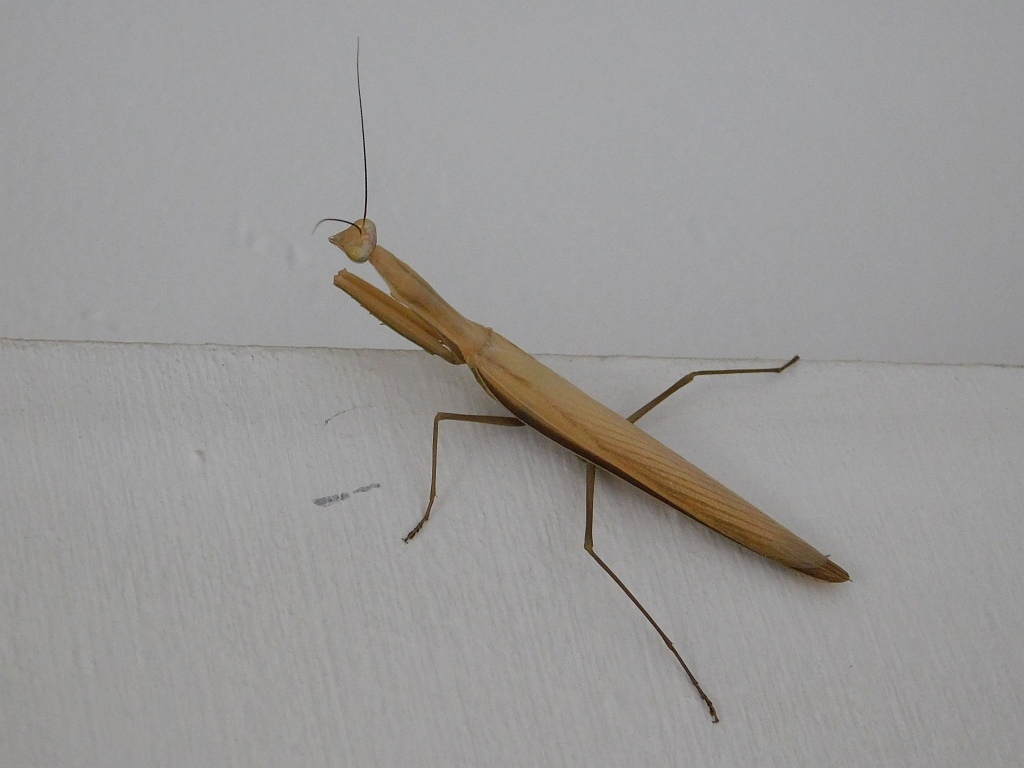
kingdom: Animalia
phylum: Arthropoda
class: Insecta
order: Mantodea
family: Mantidae
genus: Mantis
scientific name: Mantis religiosa
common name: Praying mantis
